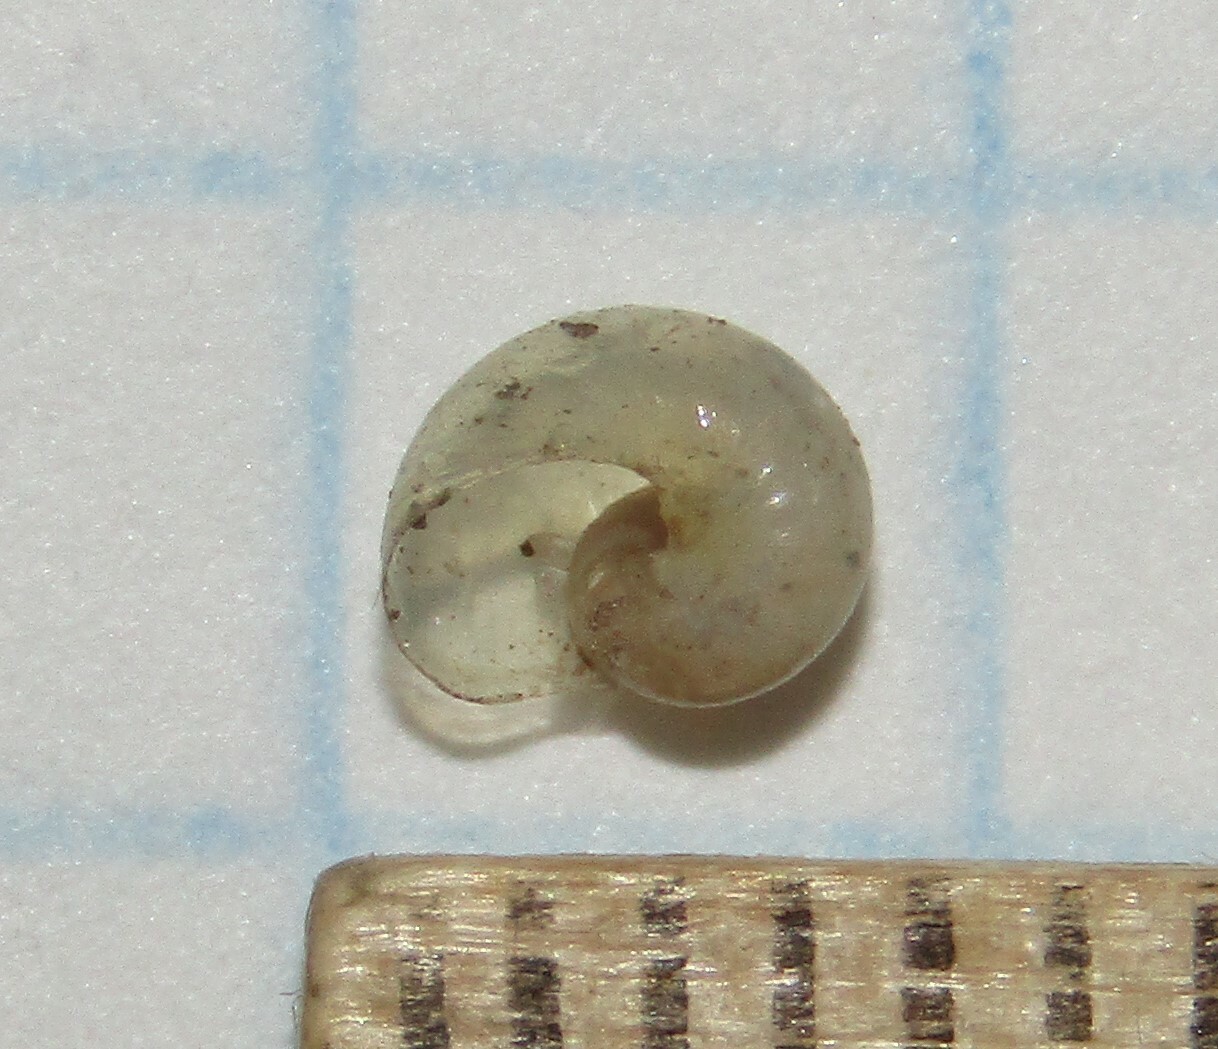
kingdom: Animalia
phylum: Mollusca
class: Gastropoda
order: Stylommatophora
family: Vitrinidae
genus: Vitrina
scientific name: Vitrina pellucida
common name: Pellucid glass snail
